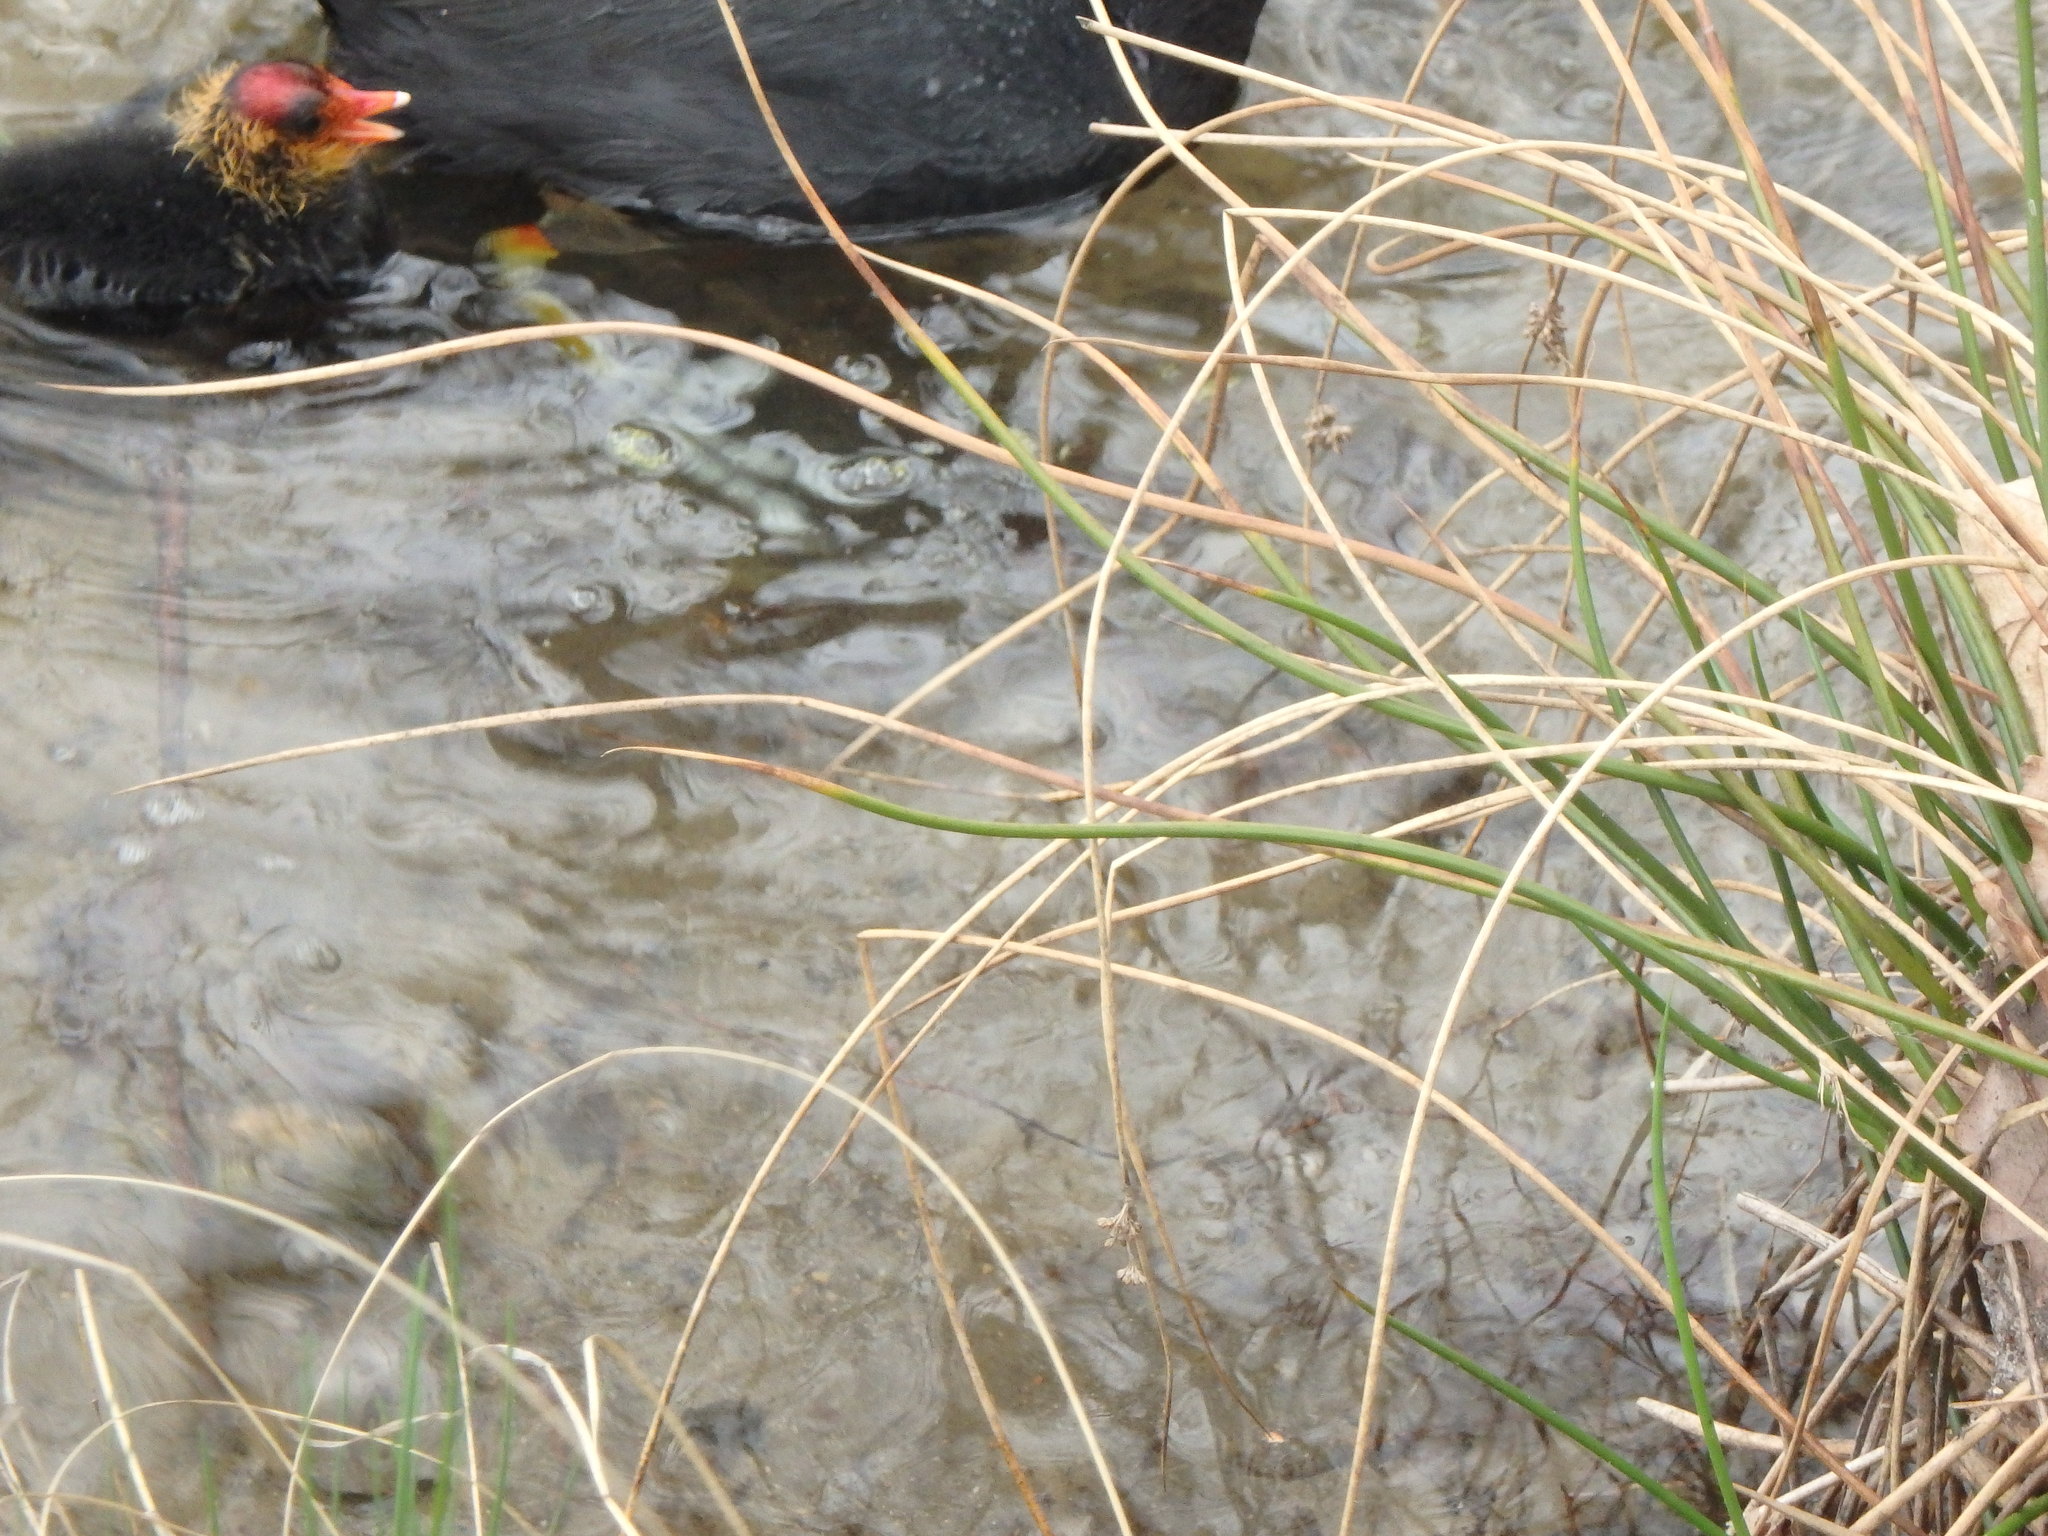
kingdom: Animalia
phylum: Chordata
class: Aves
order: Gruiformes
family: Rallidae
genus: Fulica
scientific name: Fulica atra
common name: Eurasian coot
